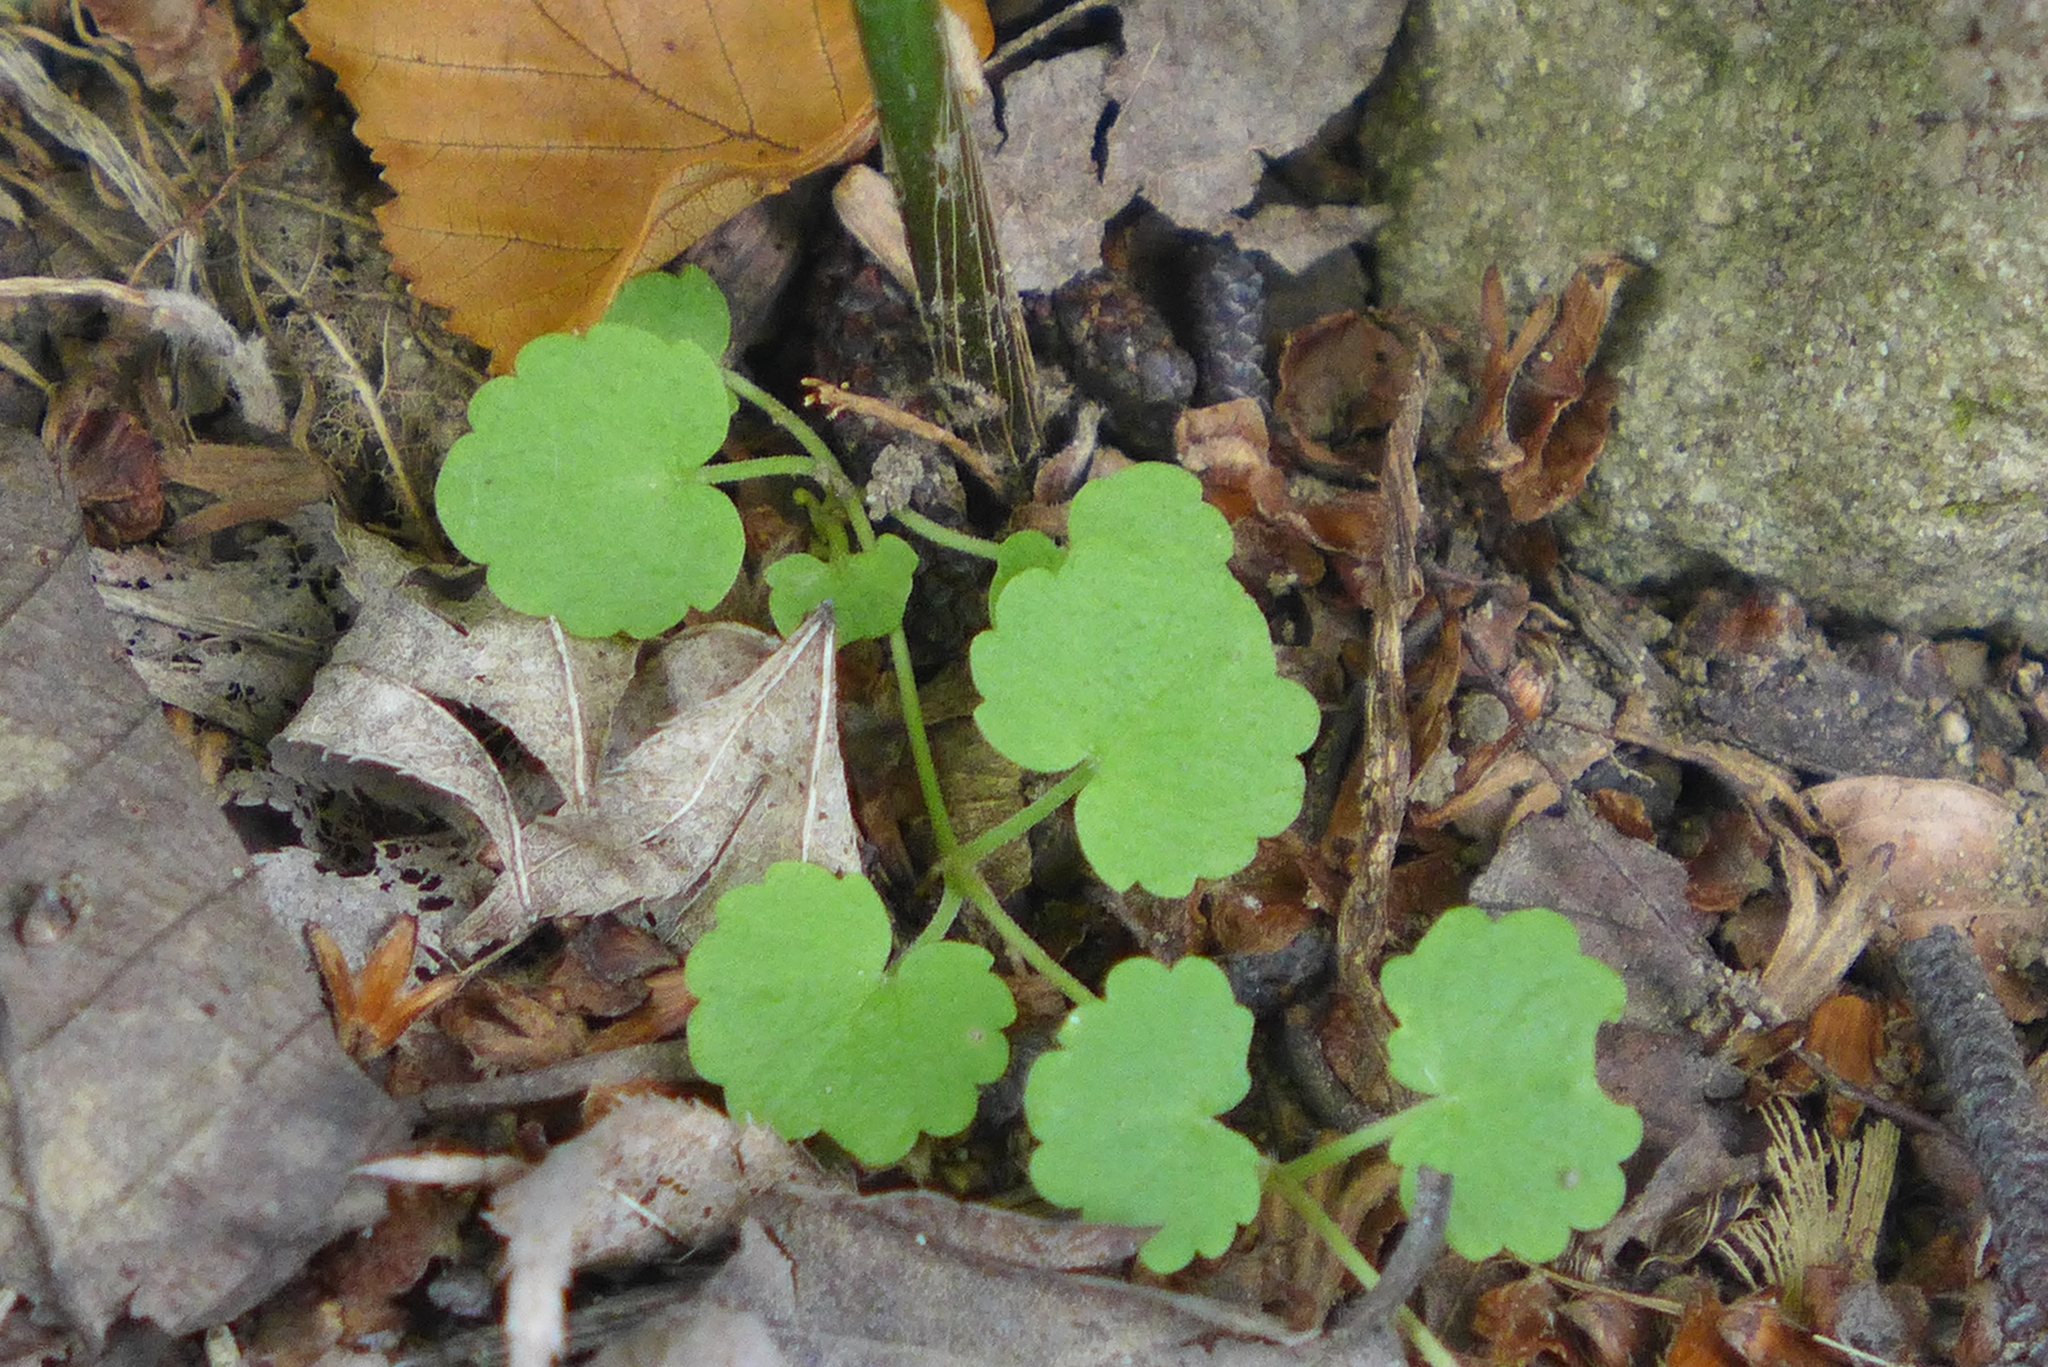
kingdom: Plantae
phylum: Tracheophyta
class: Magnoliopsida
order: Lamiales
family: Lamiaceae
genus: Glechoma
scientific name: Glechoma hederacea
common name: Ground ivy
